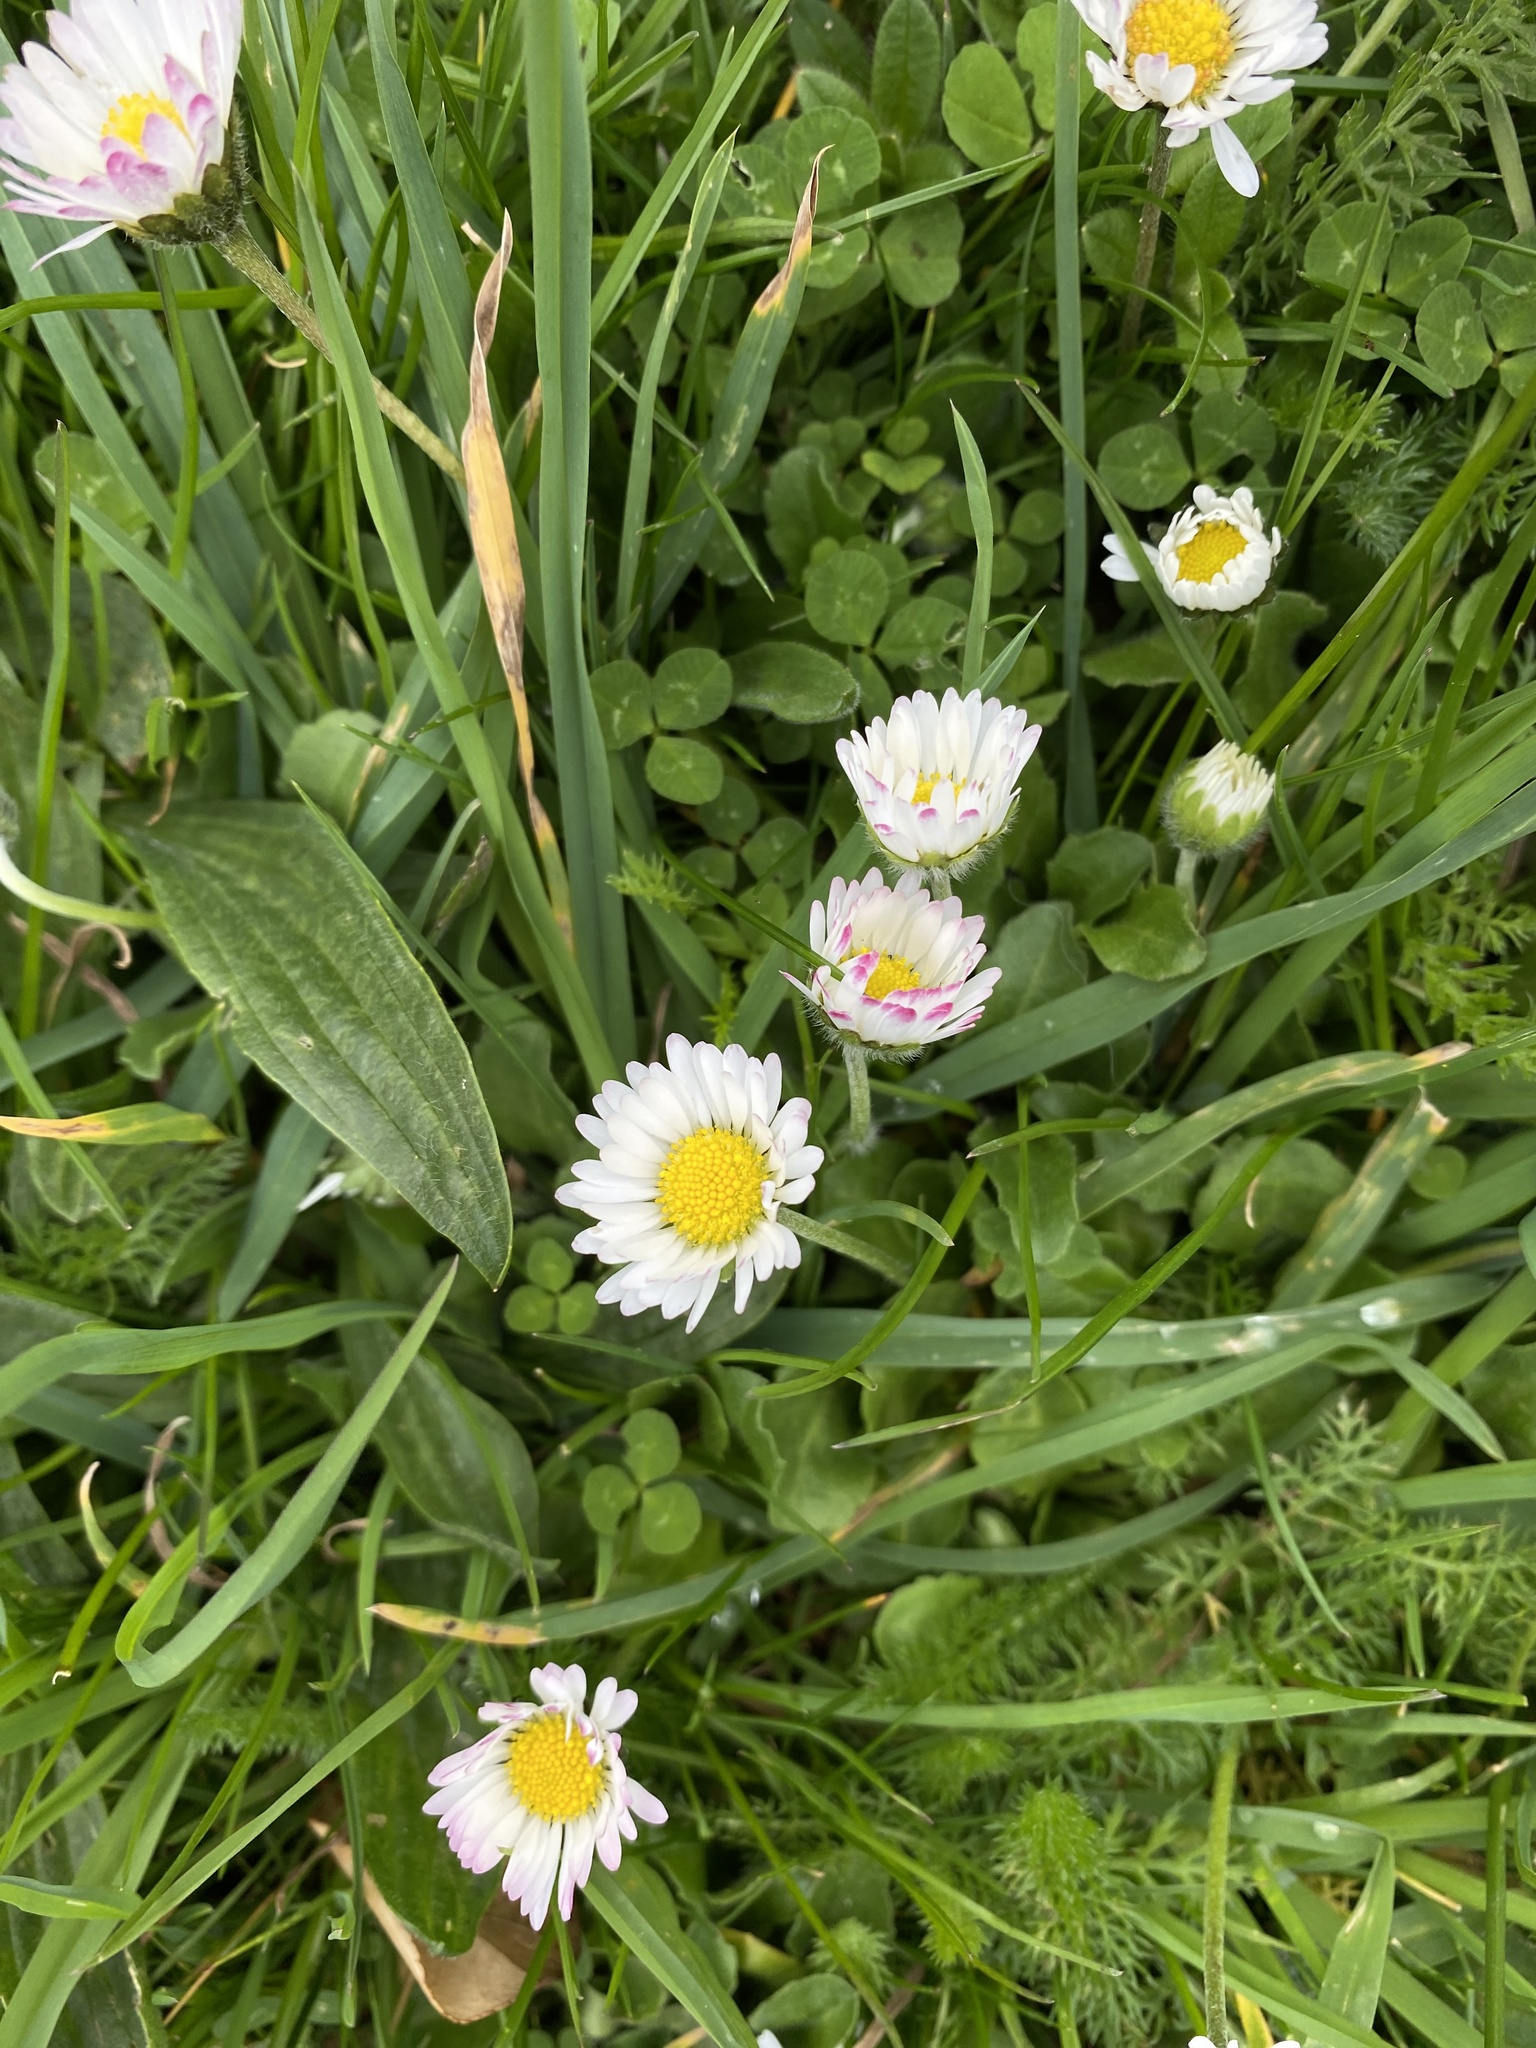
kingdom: Plantae
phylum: Tracheophyta
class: Magnoliopsida
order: Asterales
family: Asteraceae
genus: Bellis
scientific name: Bellis perennis
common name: Lawndaisy
